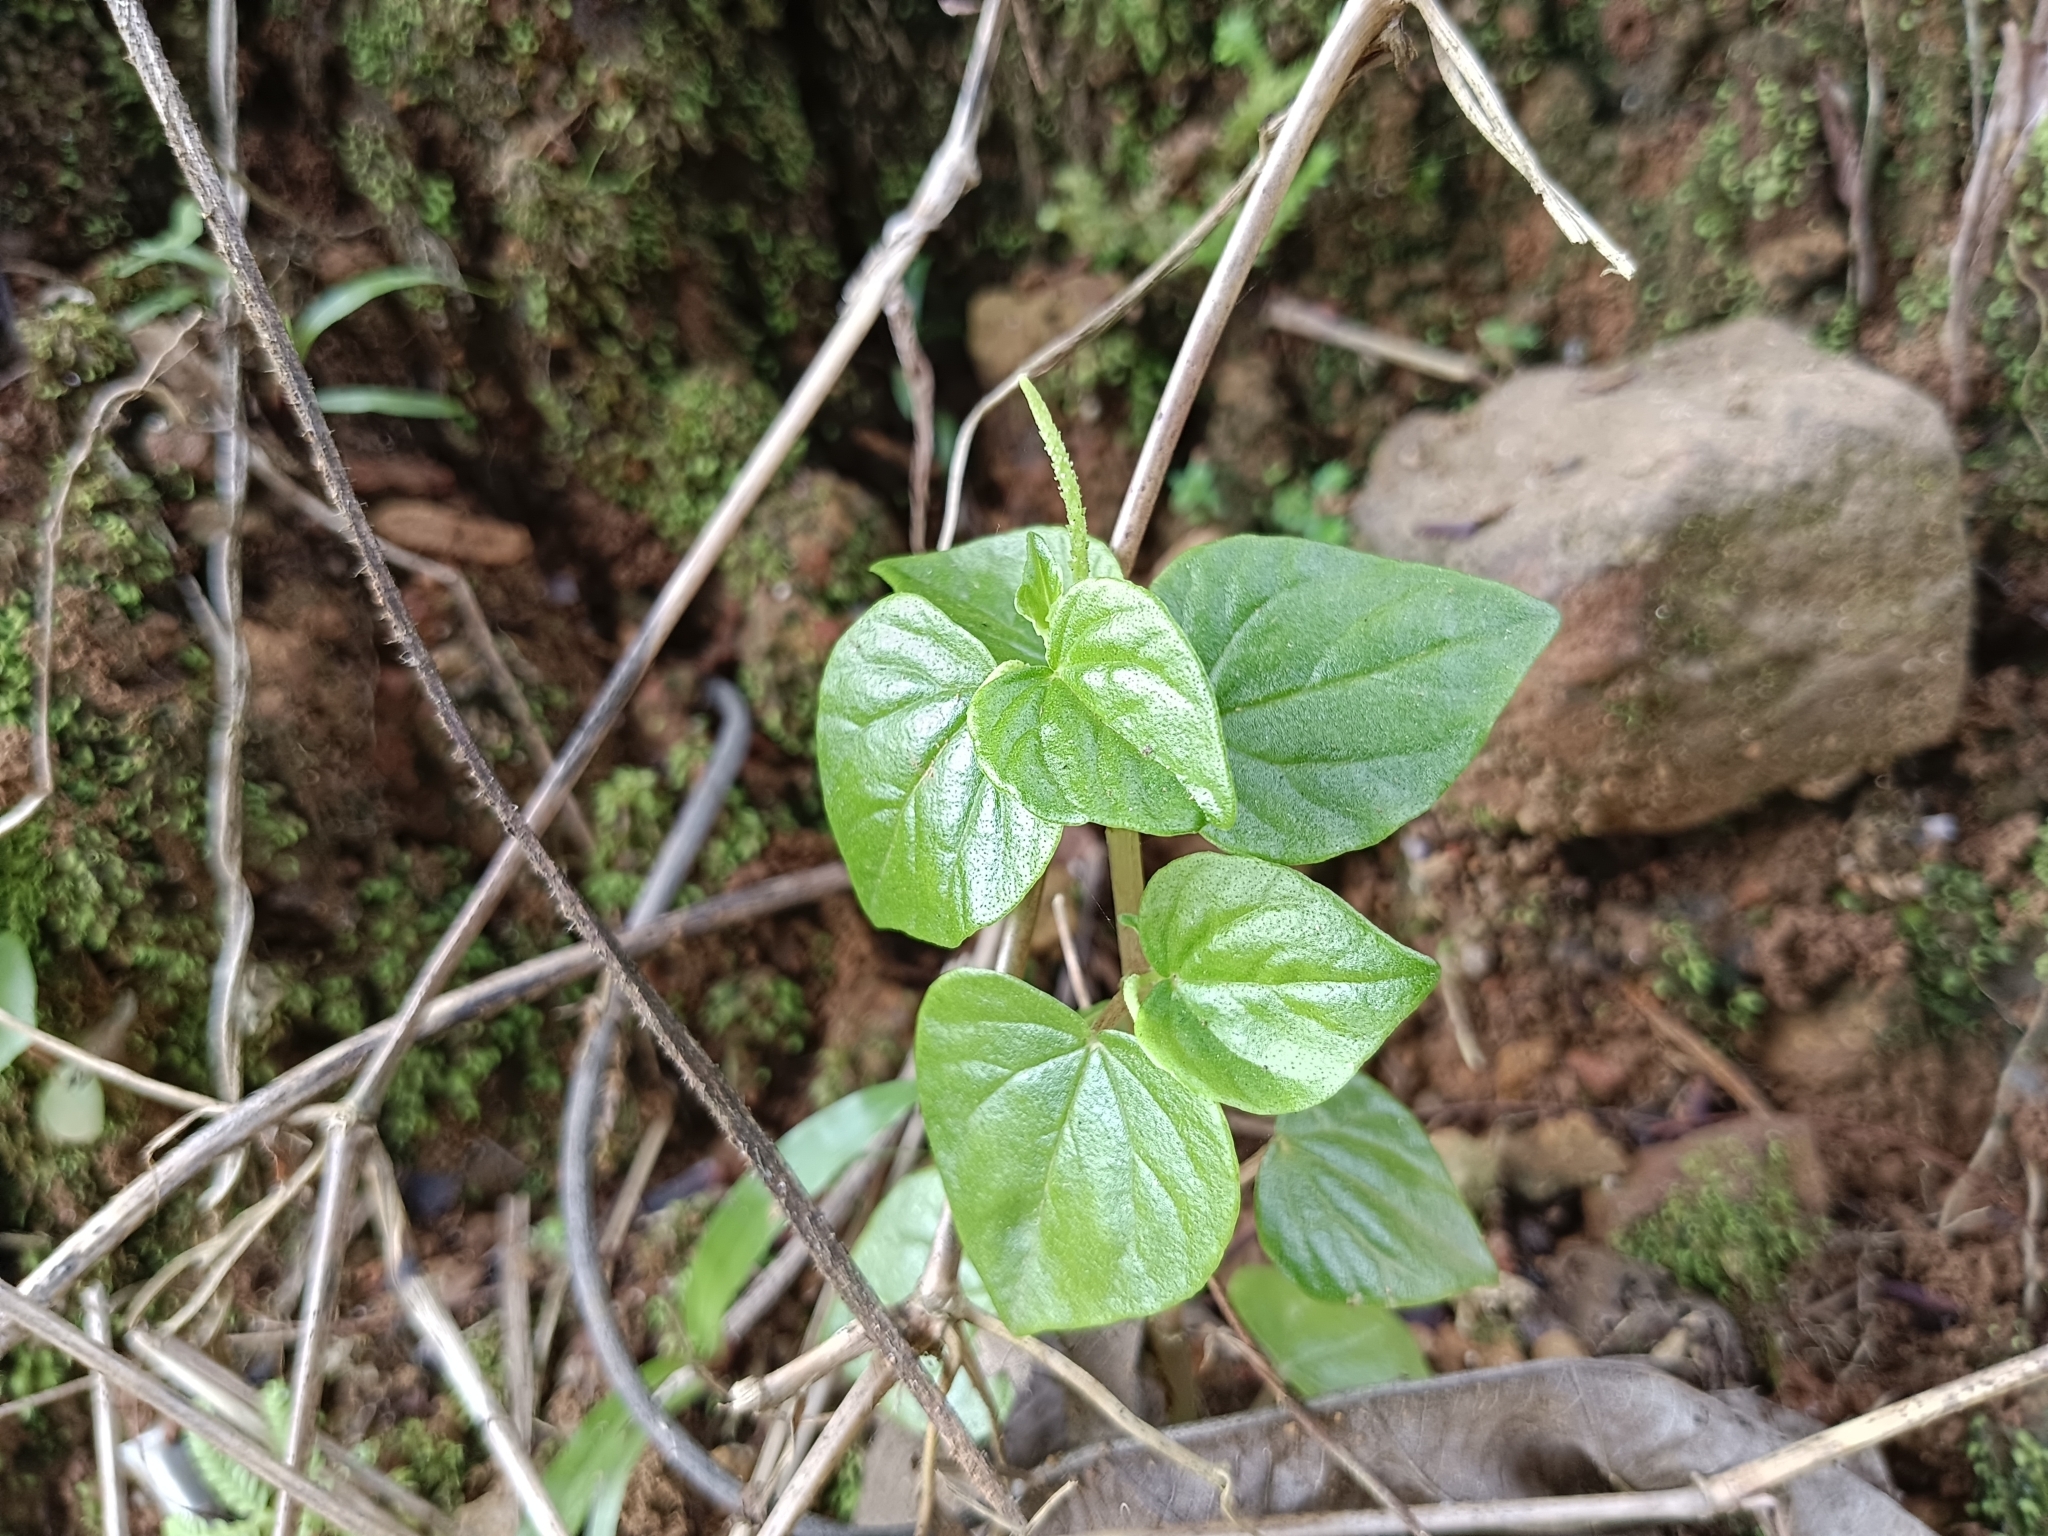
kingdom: Plantae
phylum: Tracheophyta
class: Magnoliopsida
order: Piperales
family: Piperaceae
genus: Peperomia
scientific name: Peperomia pellucida
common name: Man to man
